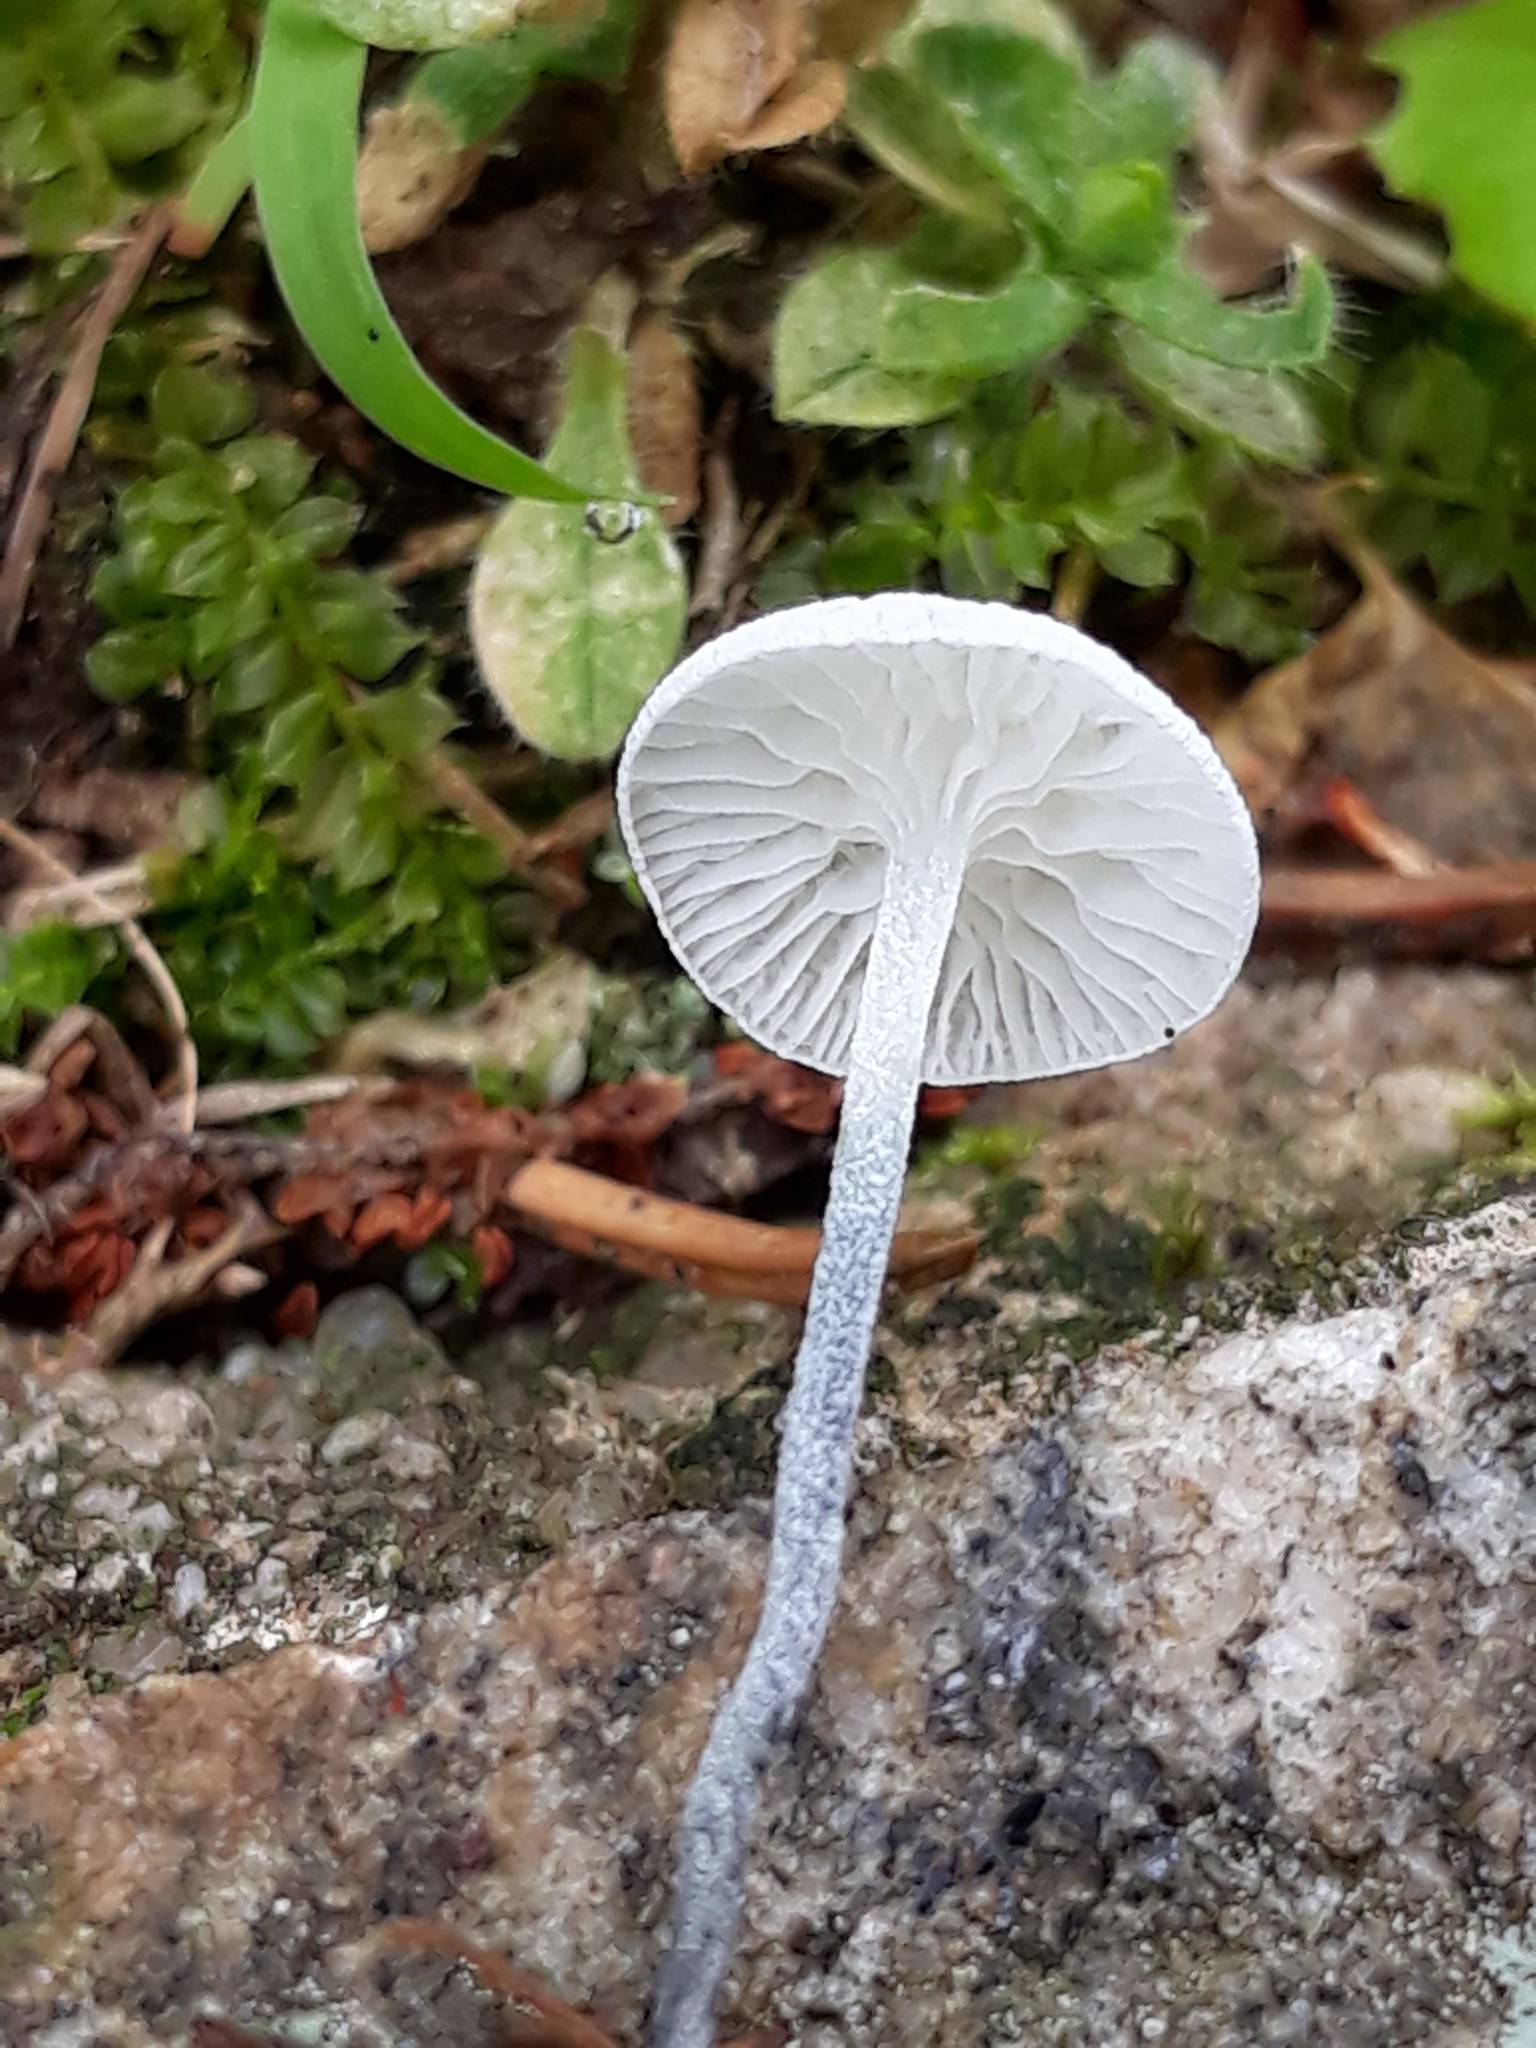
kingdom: Fungi
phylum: Basidiomycota
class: Agaricomycetes
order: Agaricales
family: Marasmiaceae
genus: Tetrapyrgos
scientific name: Tetrapyrgos nigripes
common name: Black-stalked marasmius
